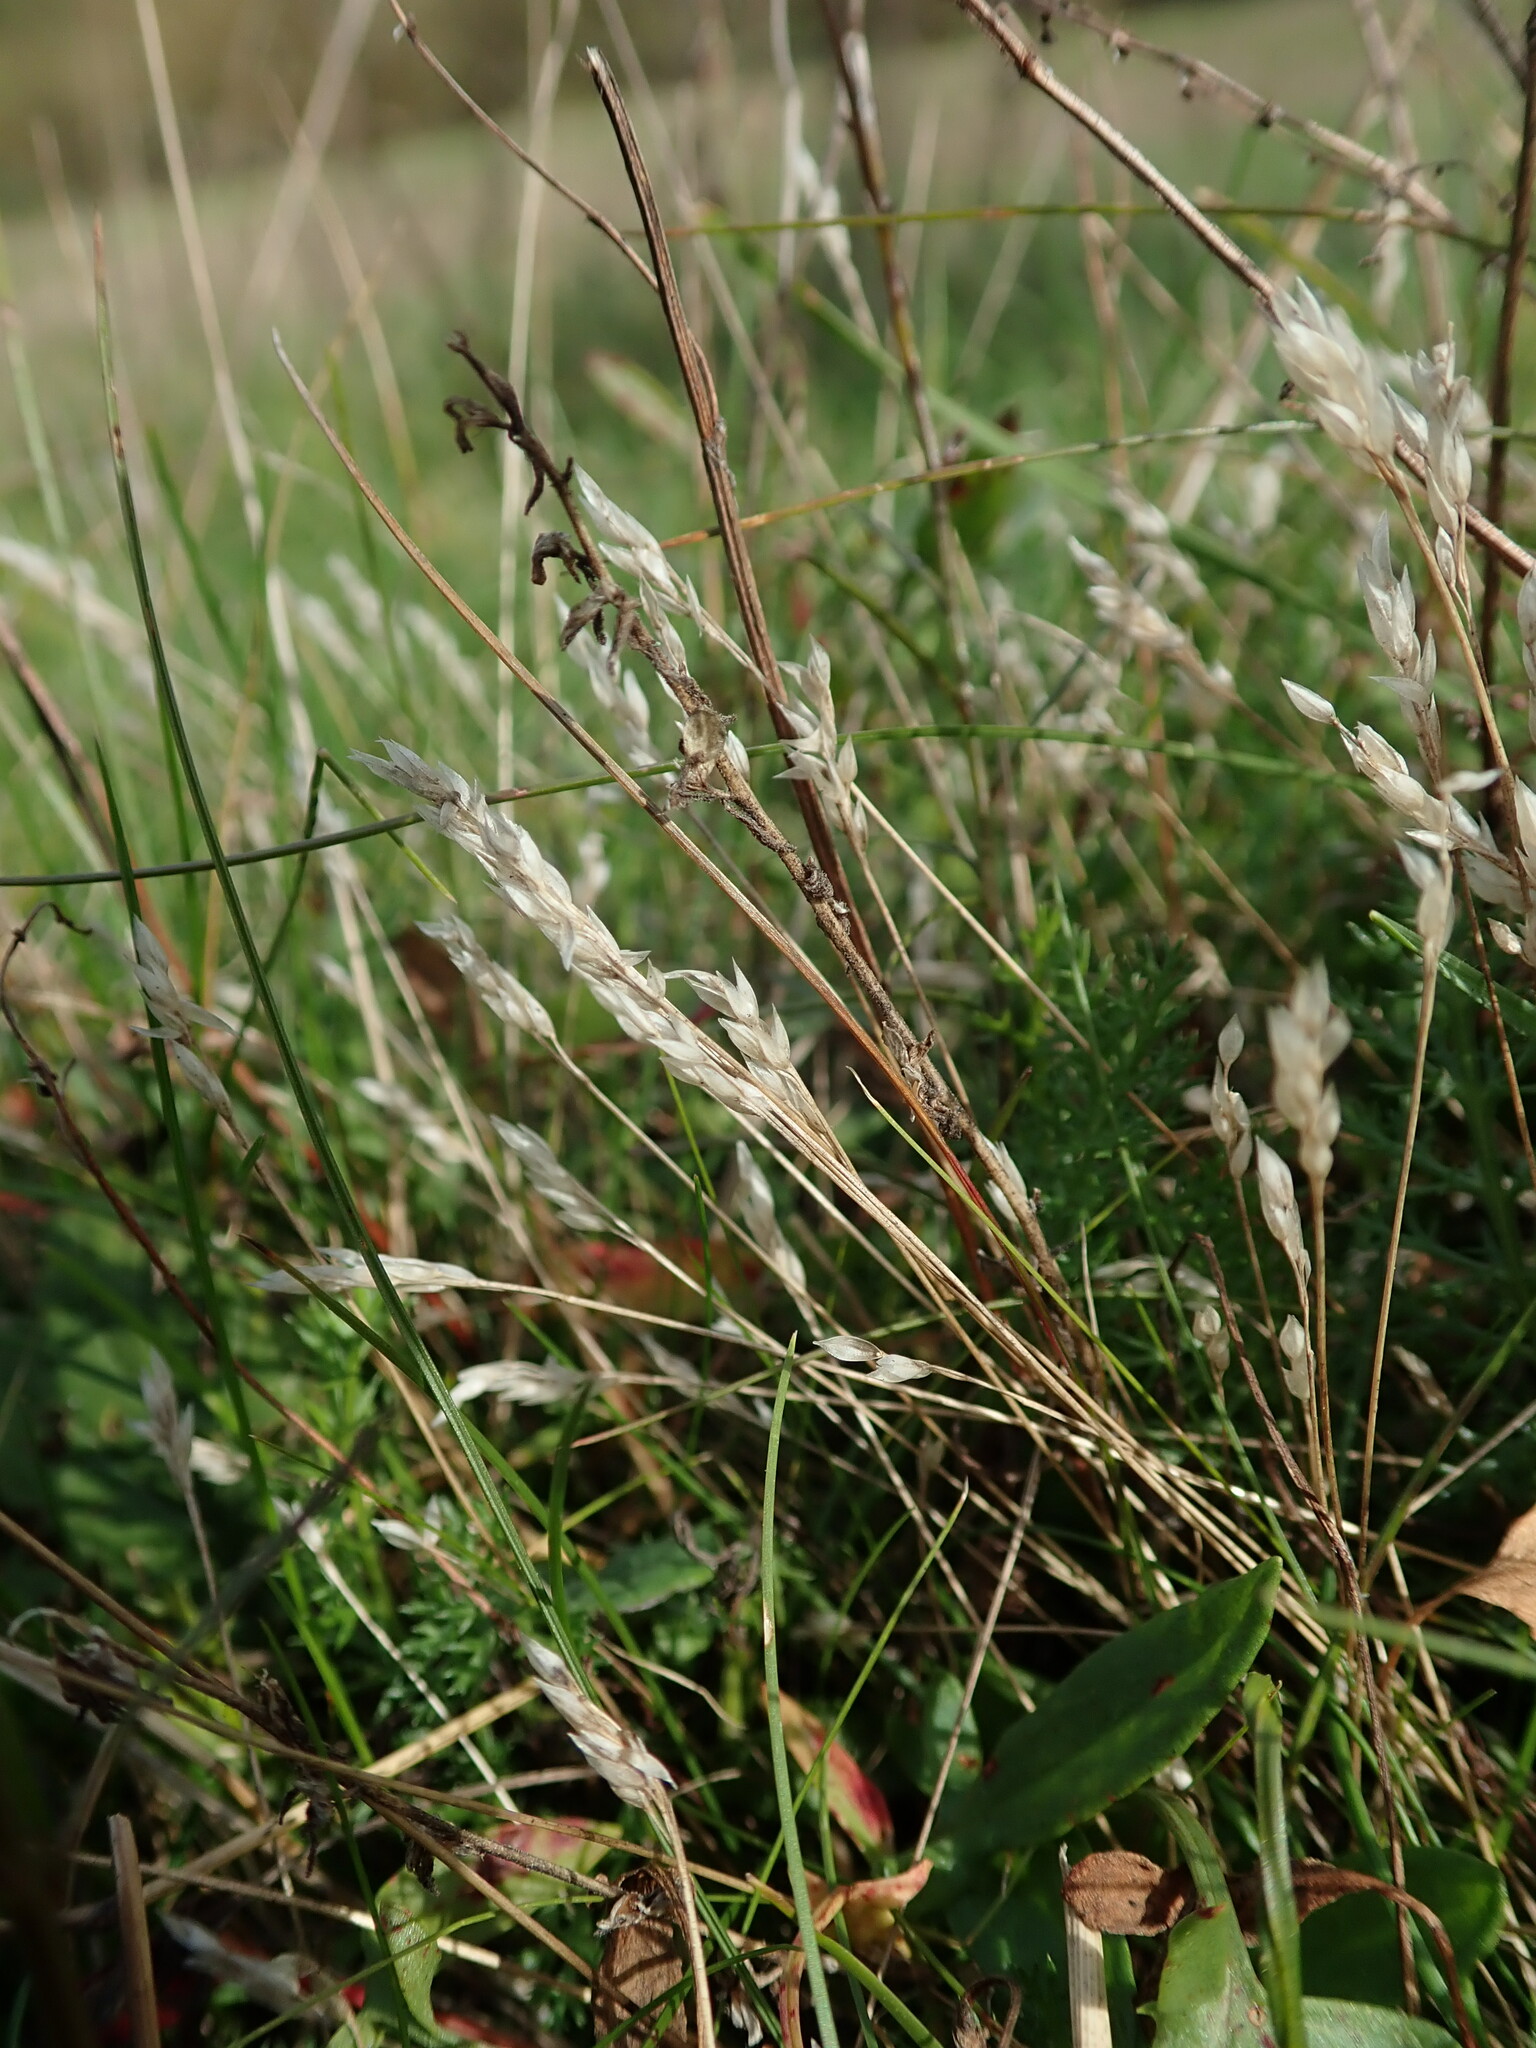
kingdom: Plantae
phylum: Tracheophyta
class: Liliopsida
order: Poales
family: Poaceae
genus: Aira
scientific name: Aira praecox
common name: Early hair-grass
